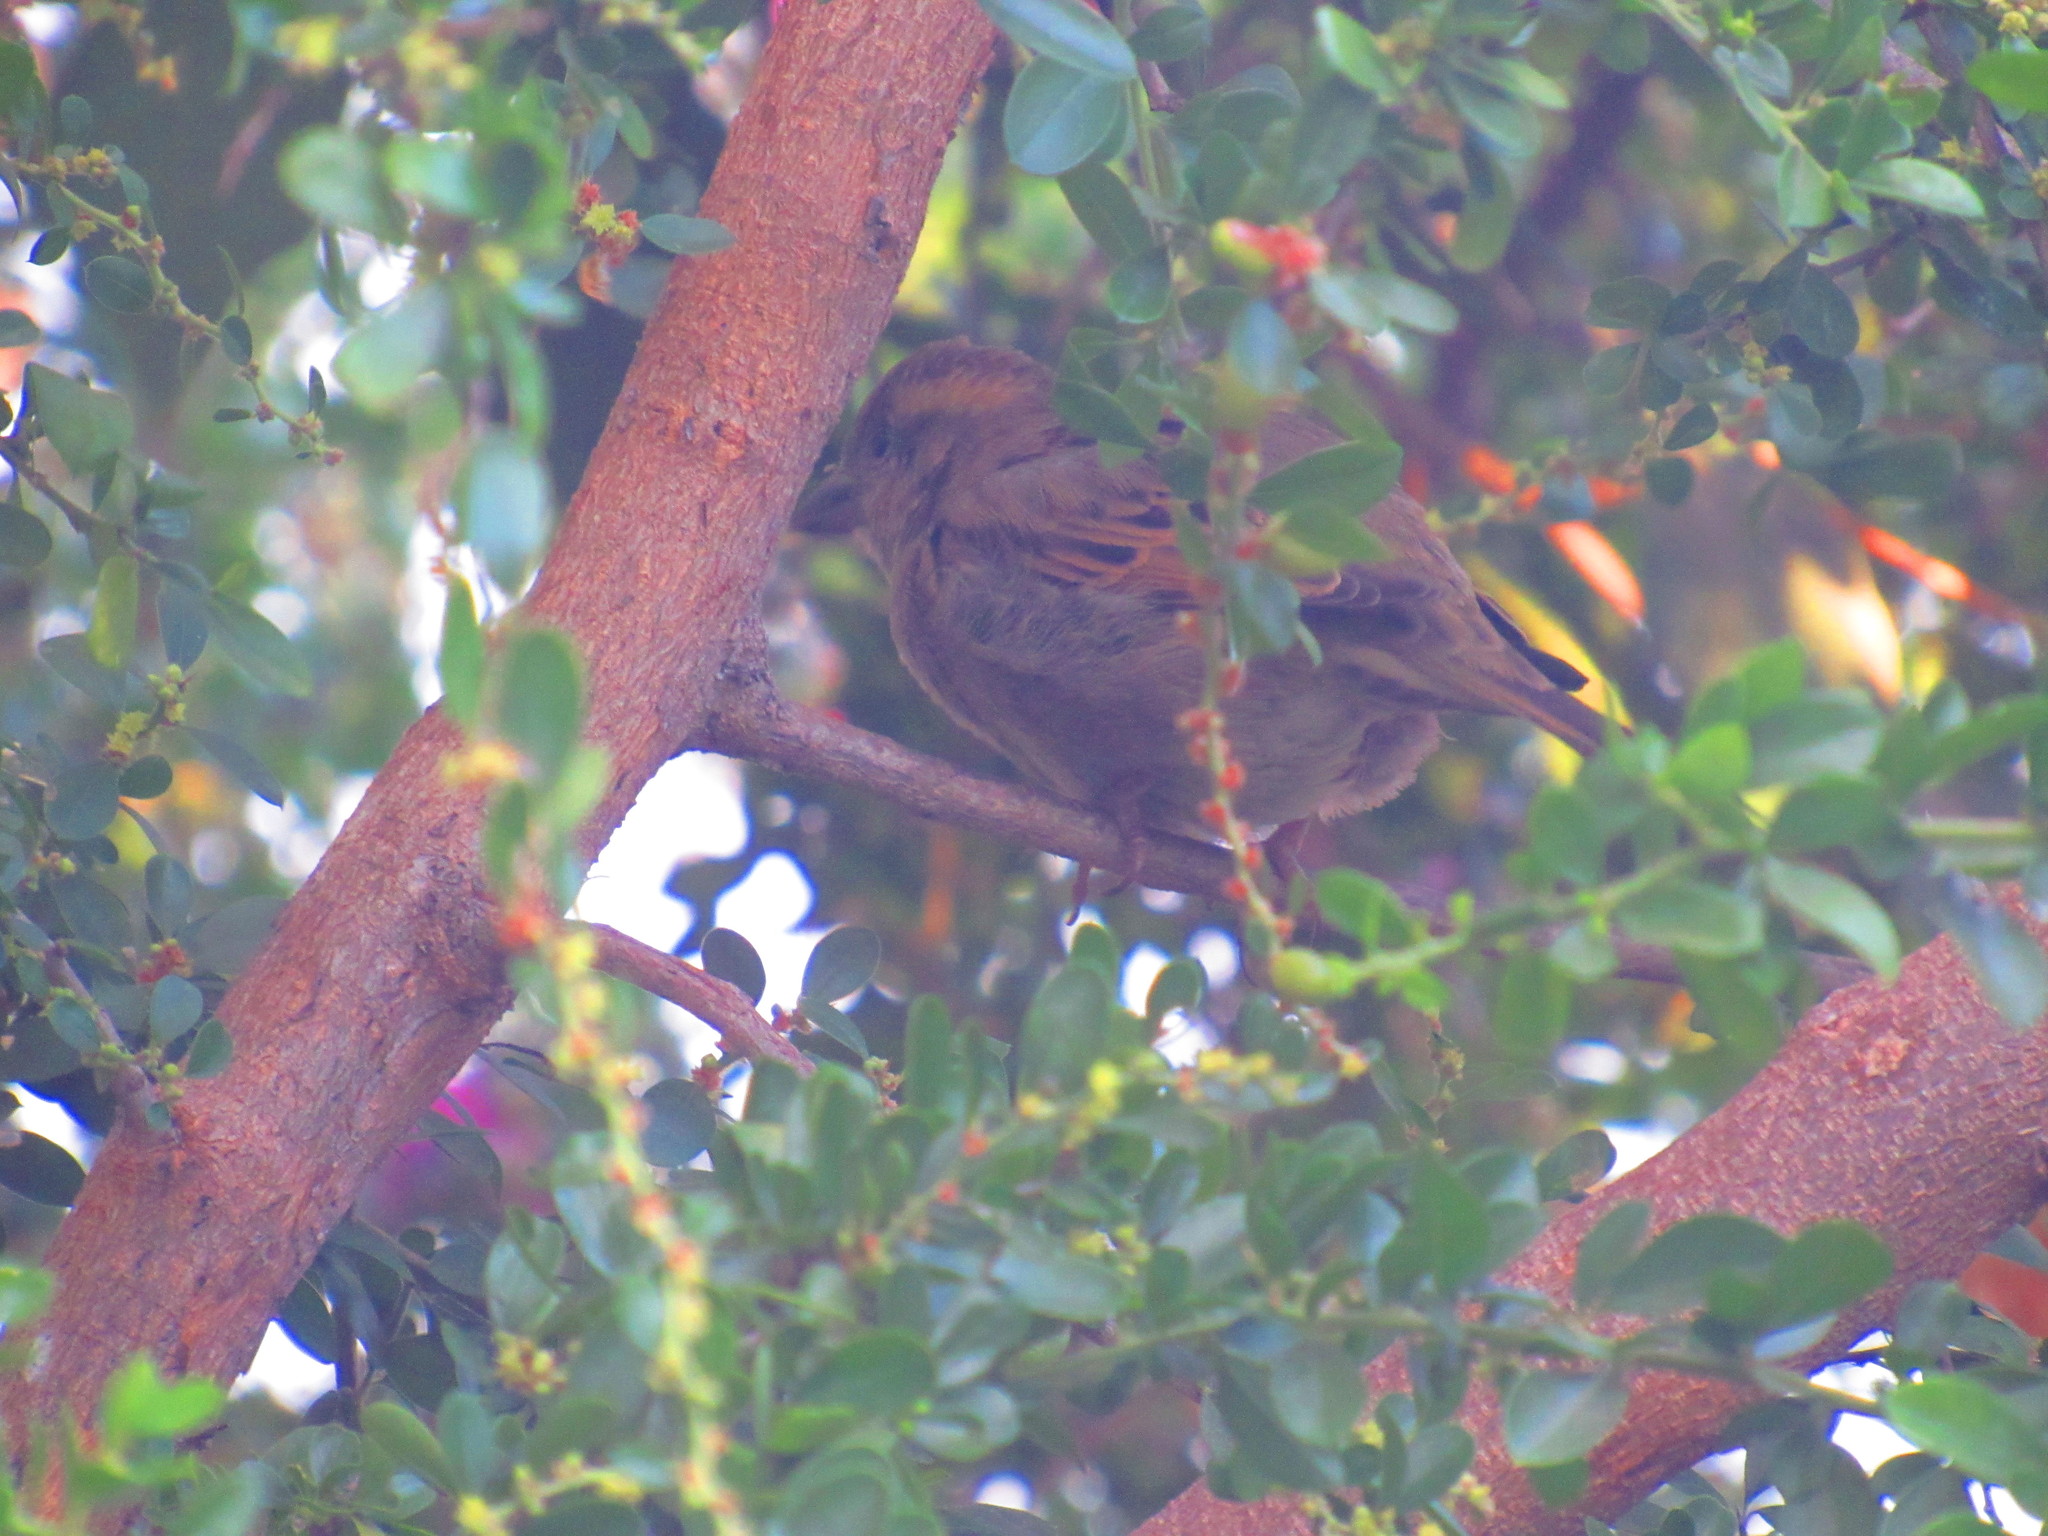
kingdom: Animalia
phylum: Chordata
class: Aves
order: Passeriformes
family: Passeridae
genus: Passer
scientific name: Passer domesticus
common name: House sparrow
